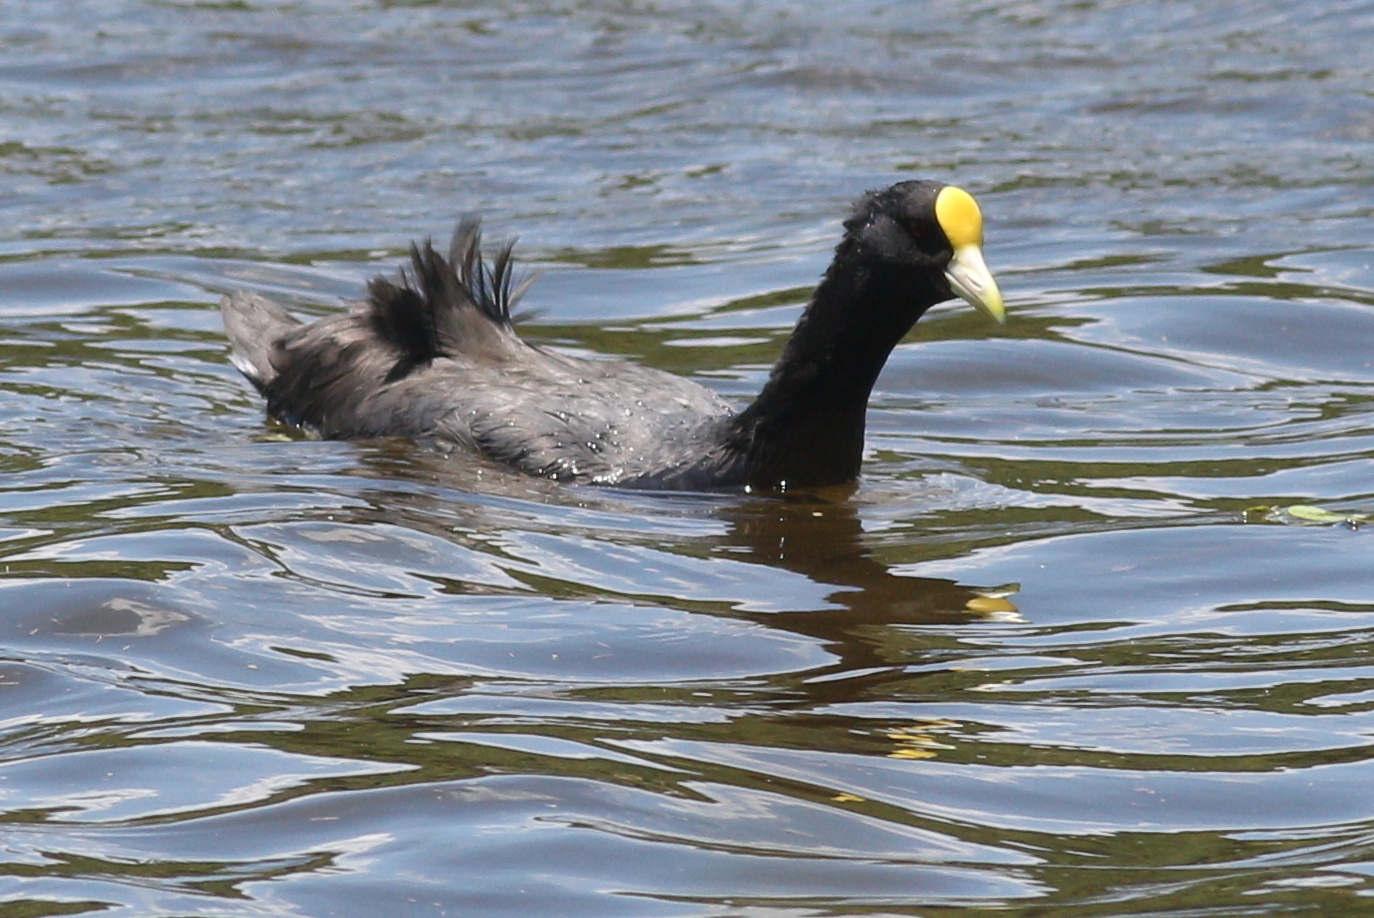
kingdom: Animalia
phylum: Chordata
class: Aves
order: Gruiformes
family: Rallidae
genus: Fulica
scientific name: Fulica leucoptera
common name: White-winged coot
